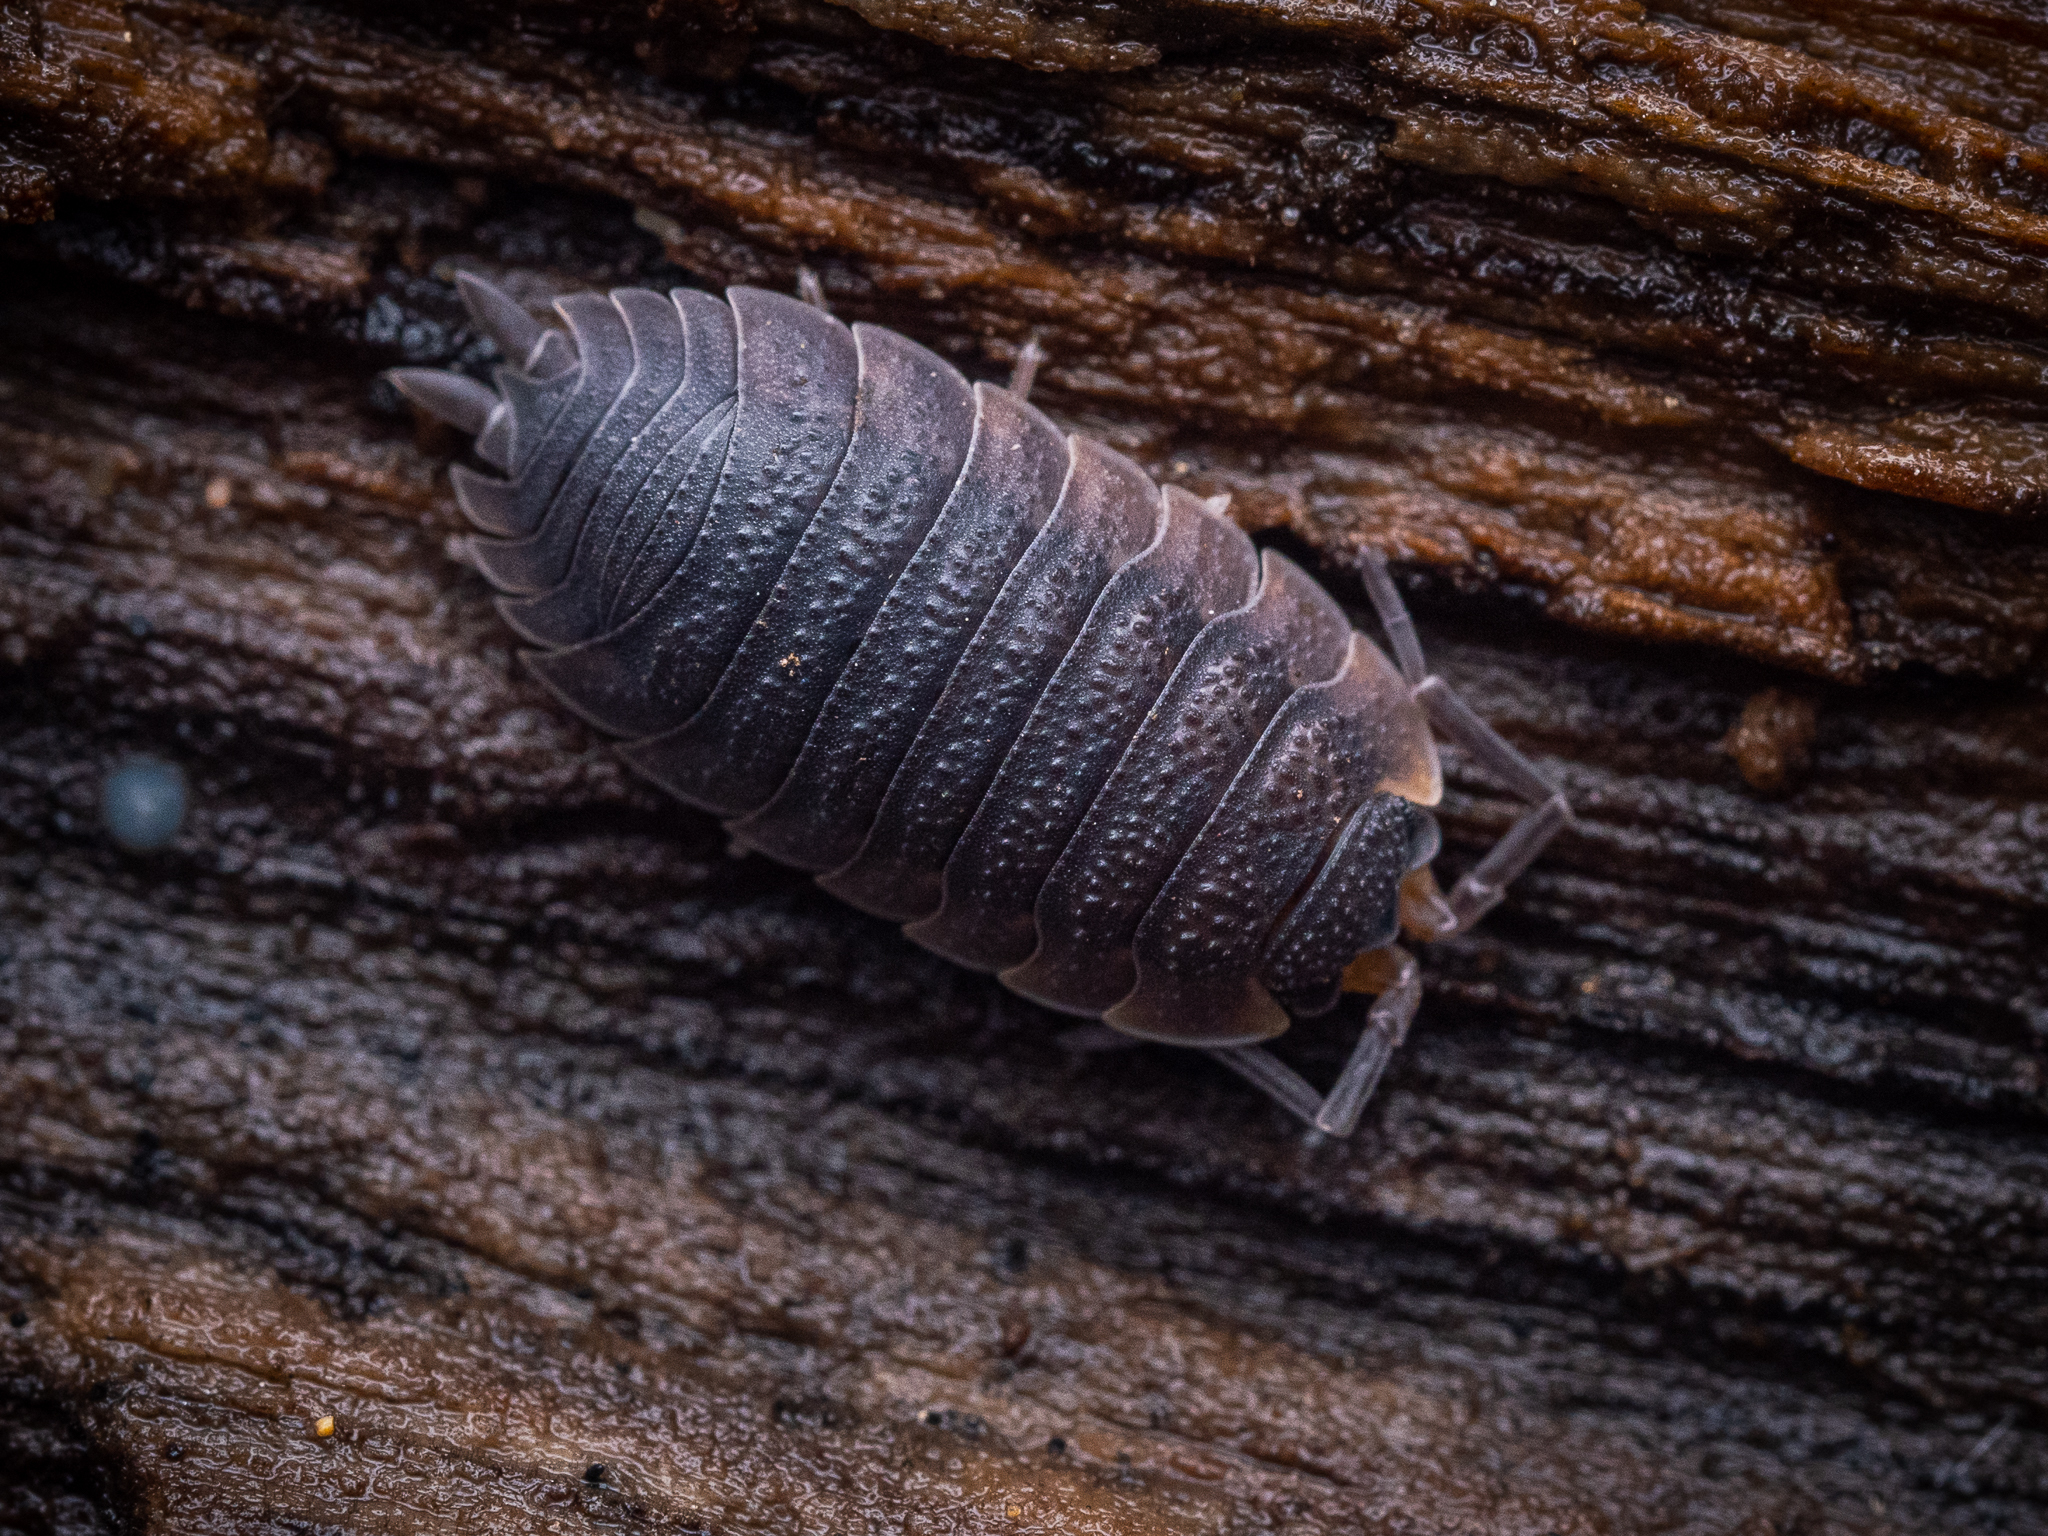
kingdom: Animalia
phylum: Arthropoda
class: Malacostraca
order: Isopoda
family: Porcellionidae
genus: Porcellio
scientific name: Porcellio scaber
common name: Common rough woodlouse
